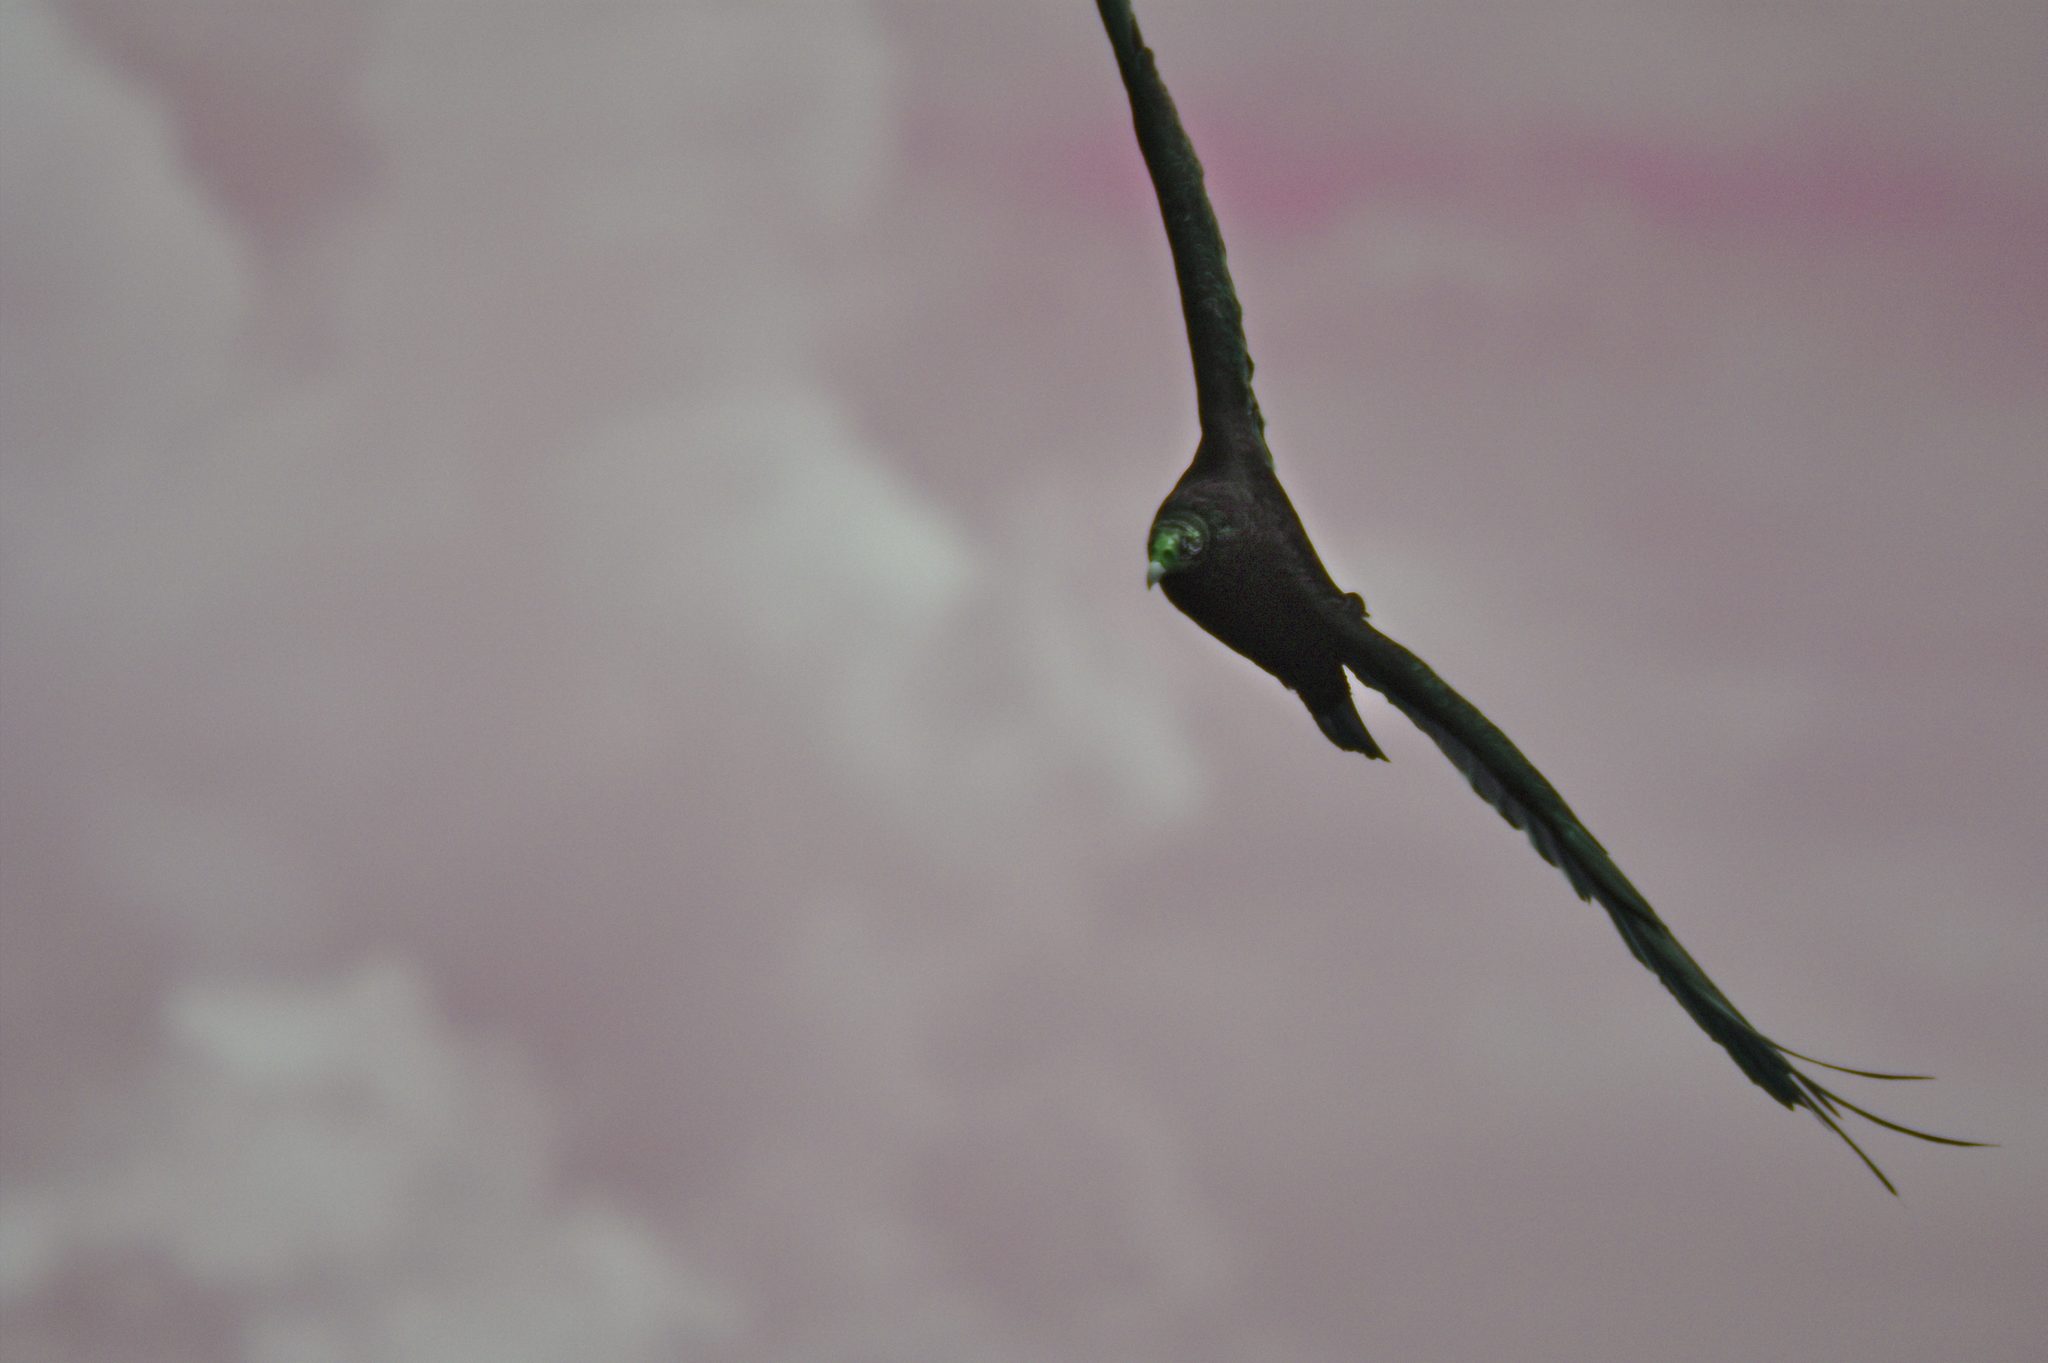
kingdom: Animalia
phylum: Chordata
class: Aves
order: Accipitriformes
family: Cathartidae
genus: Cathartes
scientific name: Cathartes aura
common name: Turkey vulture
